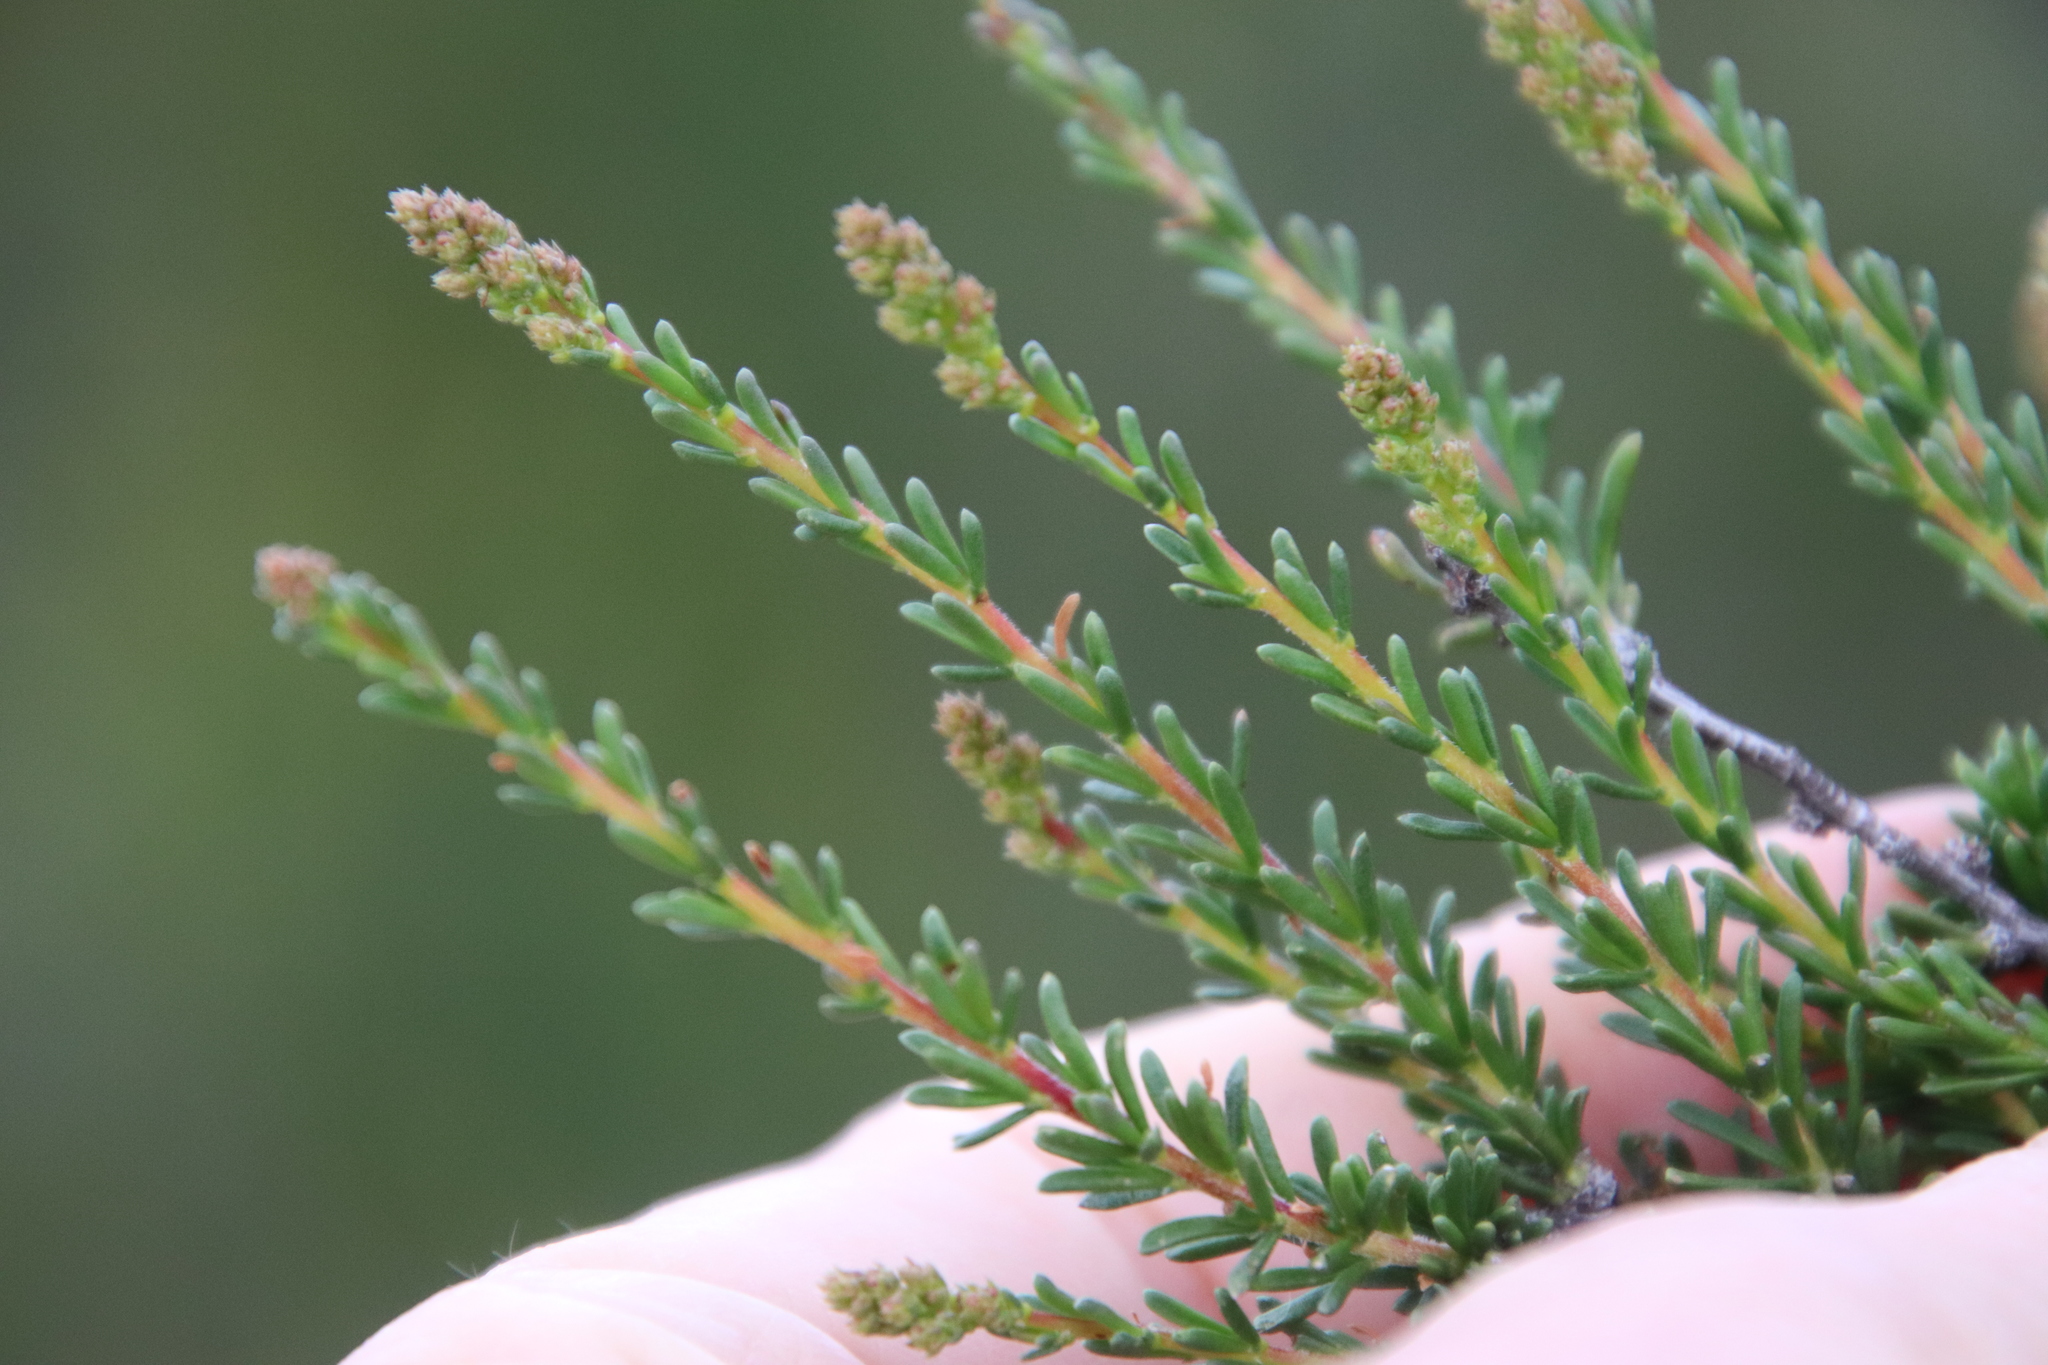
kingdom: Plantae
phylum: Tracheophyta
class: Magnoliopsida
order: Rosales
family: Rosaceae
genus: Adenostoma
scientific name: Adenostoma fasciculatum
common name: Chamise
